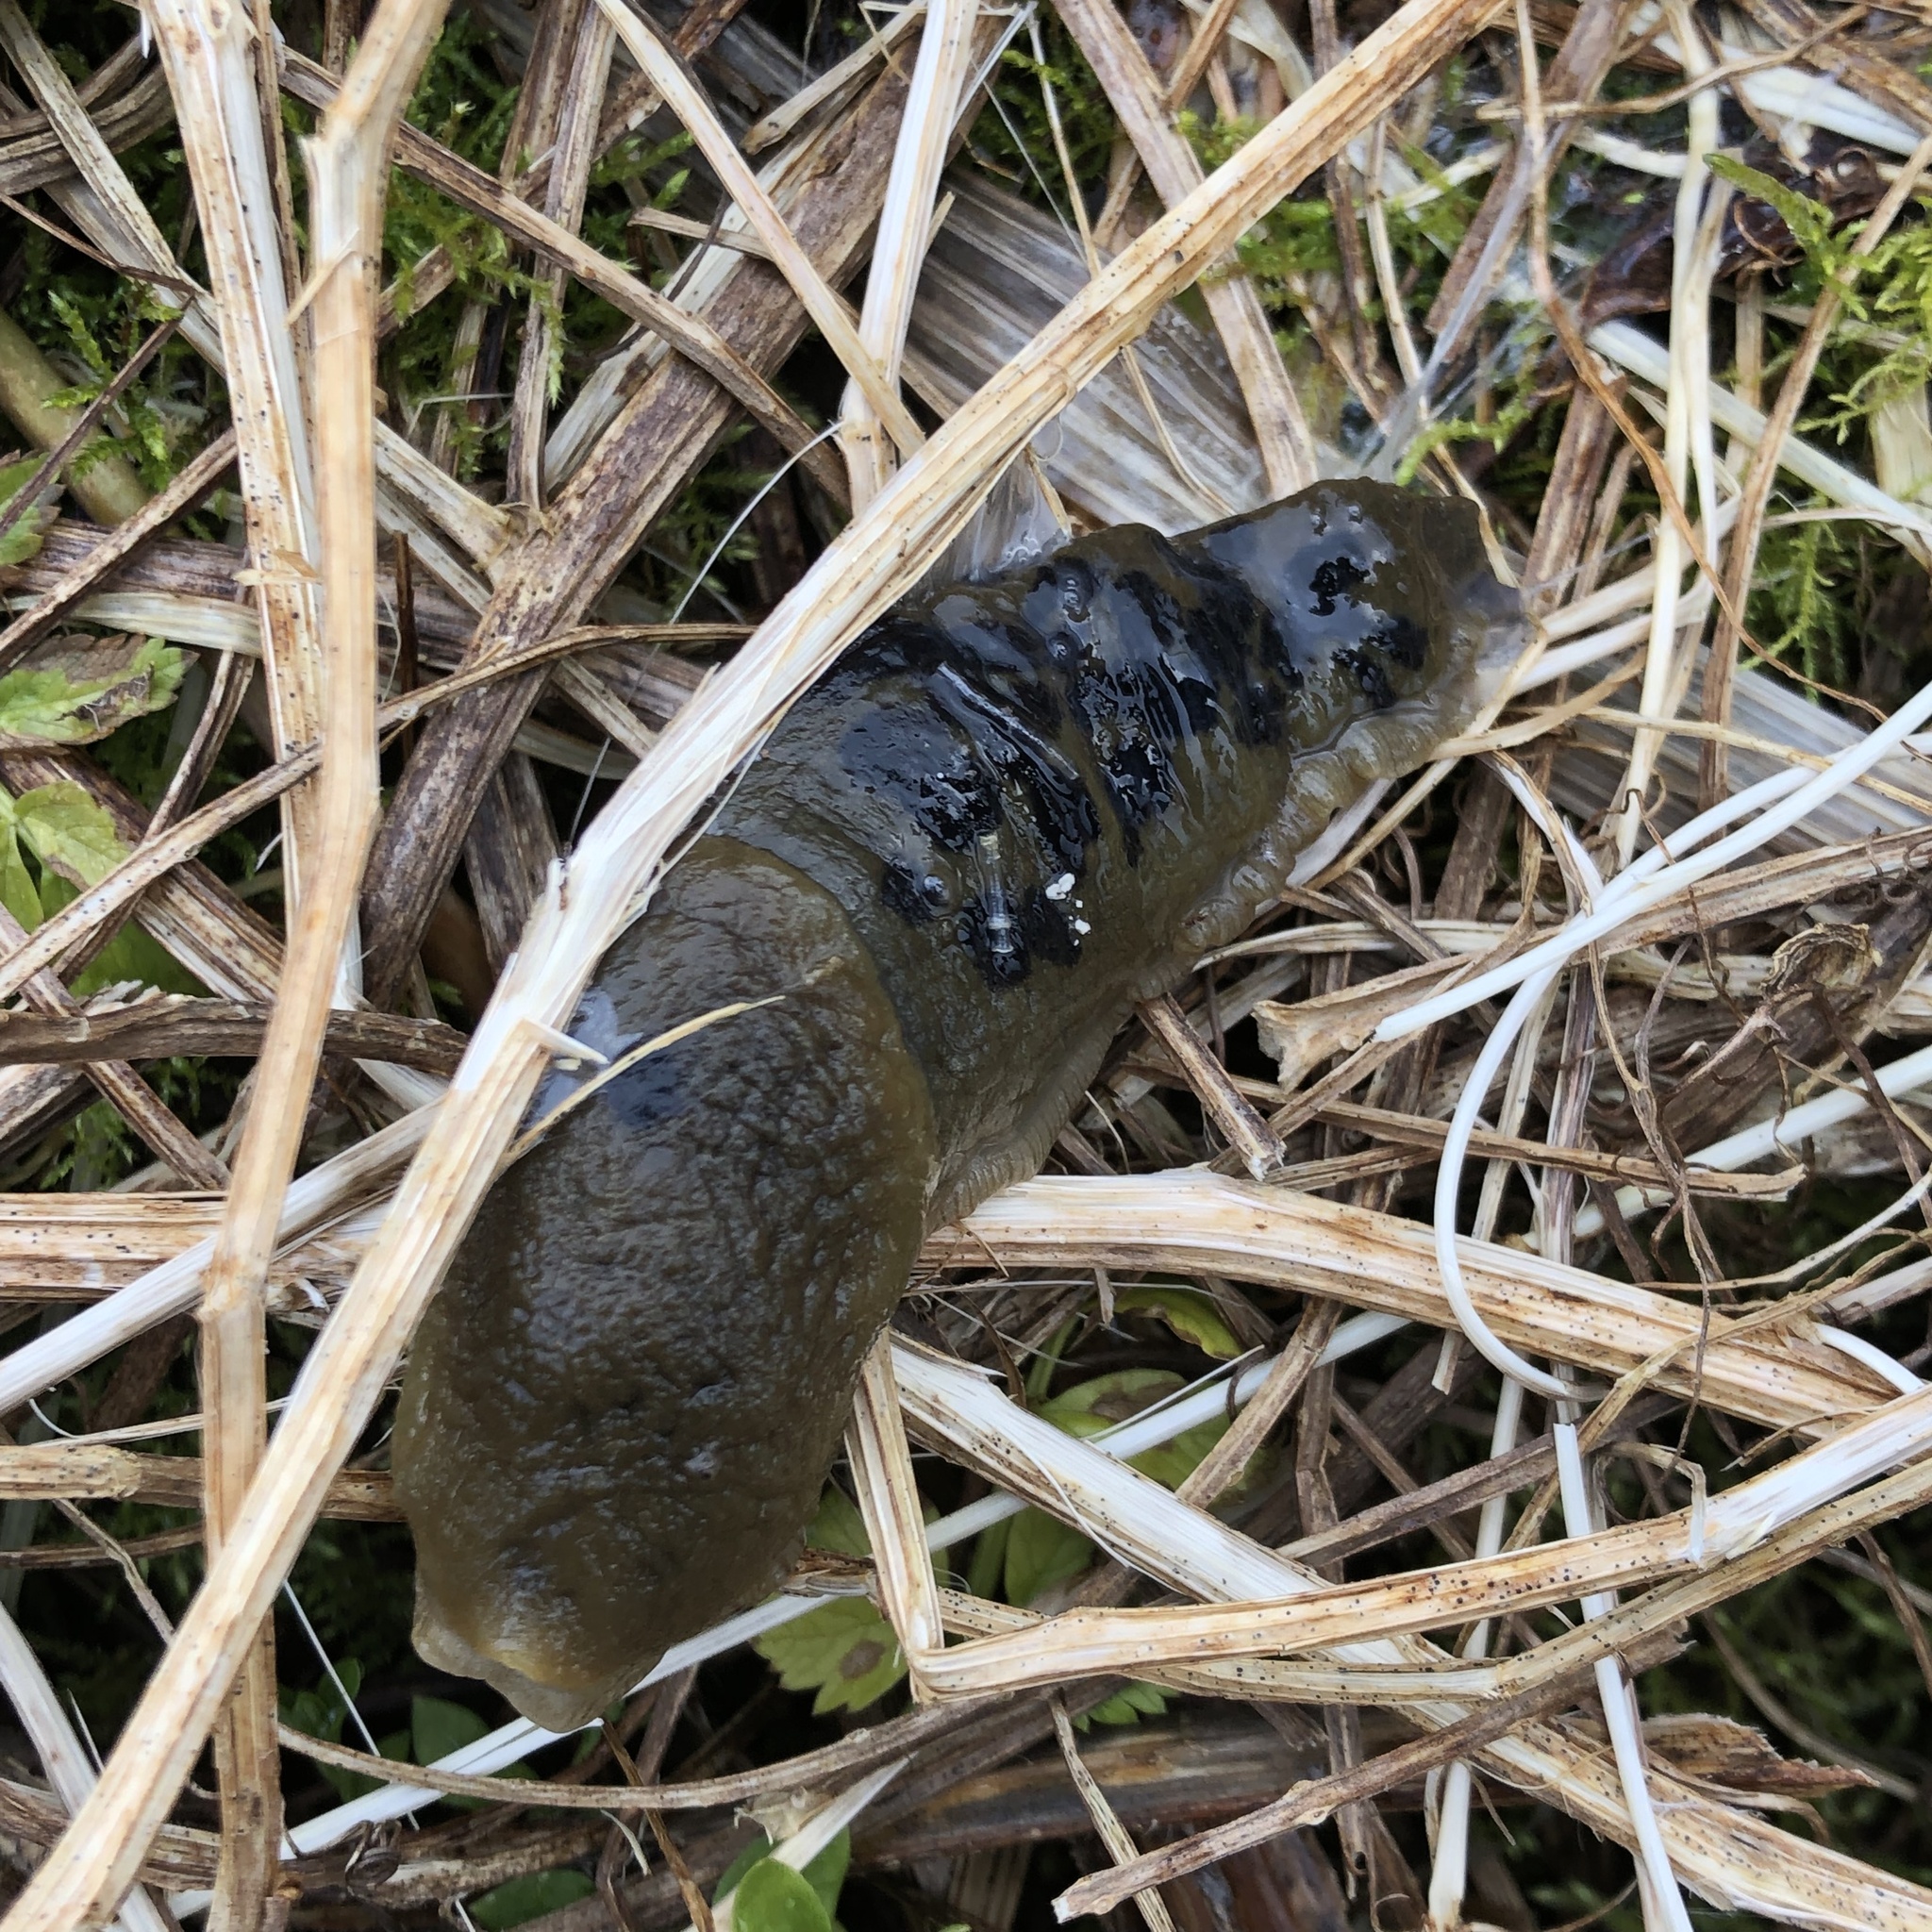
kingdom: Animalia
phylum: Mollusca
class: Gastropoda
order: Stylommatophora
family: Ariolimacidae
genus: Ariolimax
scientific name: Ariolimax columbianus
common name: Pacific banana slug
